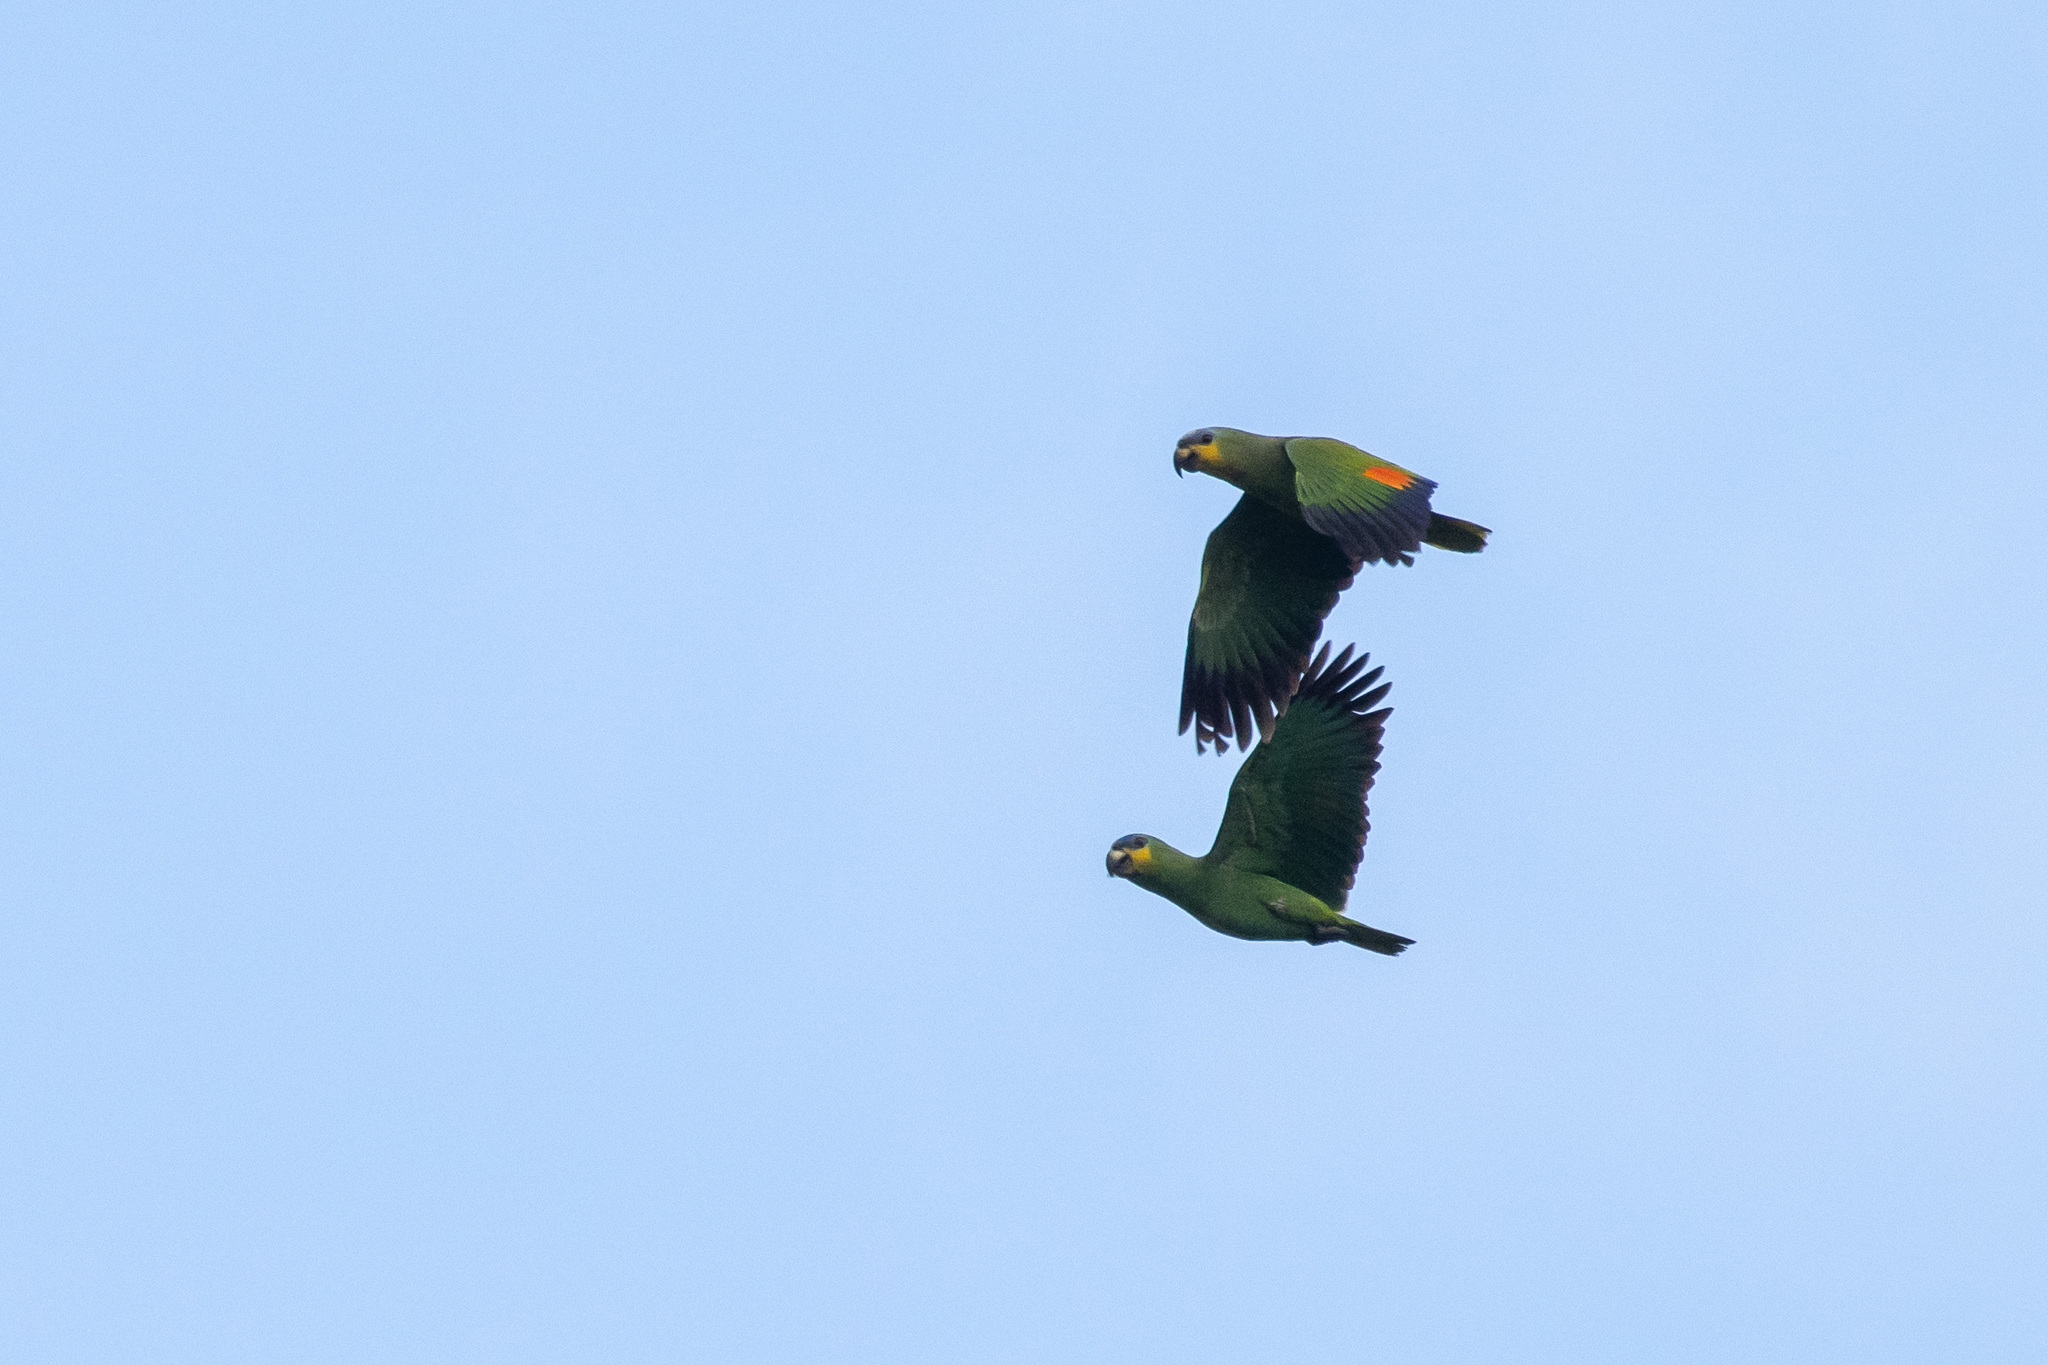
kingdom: Animalia
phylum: Chordata
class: Aves
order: Psittaciformes
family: Psittacidae
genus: Amazona
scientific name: Amazona amazonica
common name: Orange-winged amazon
